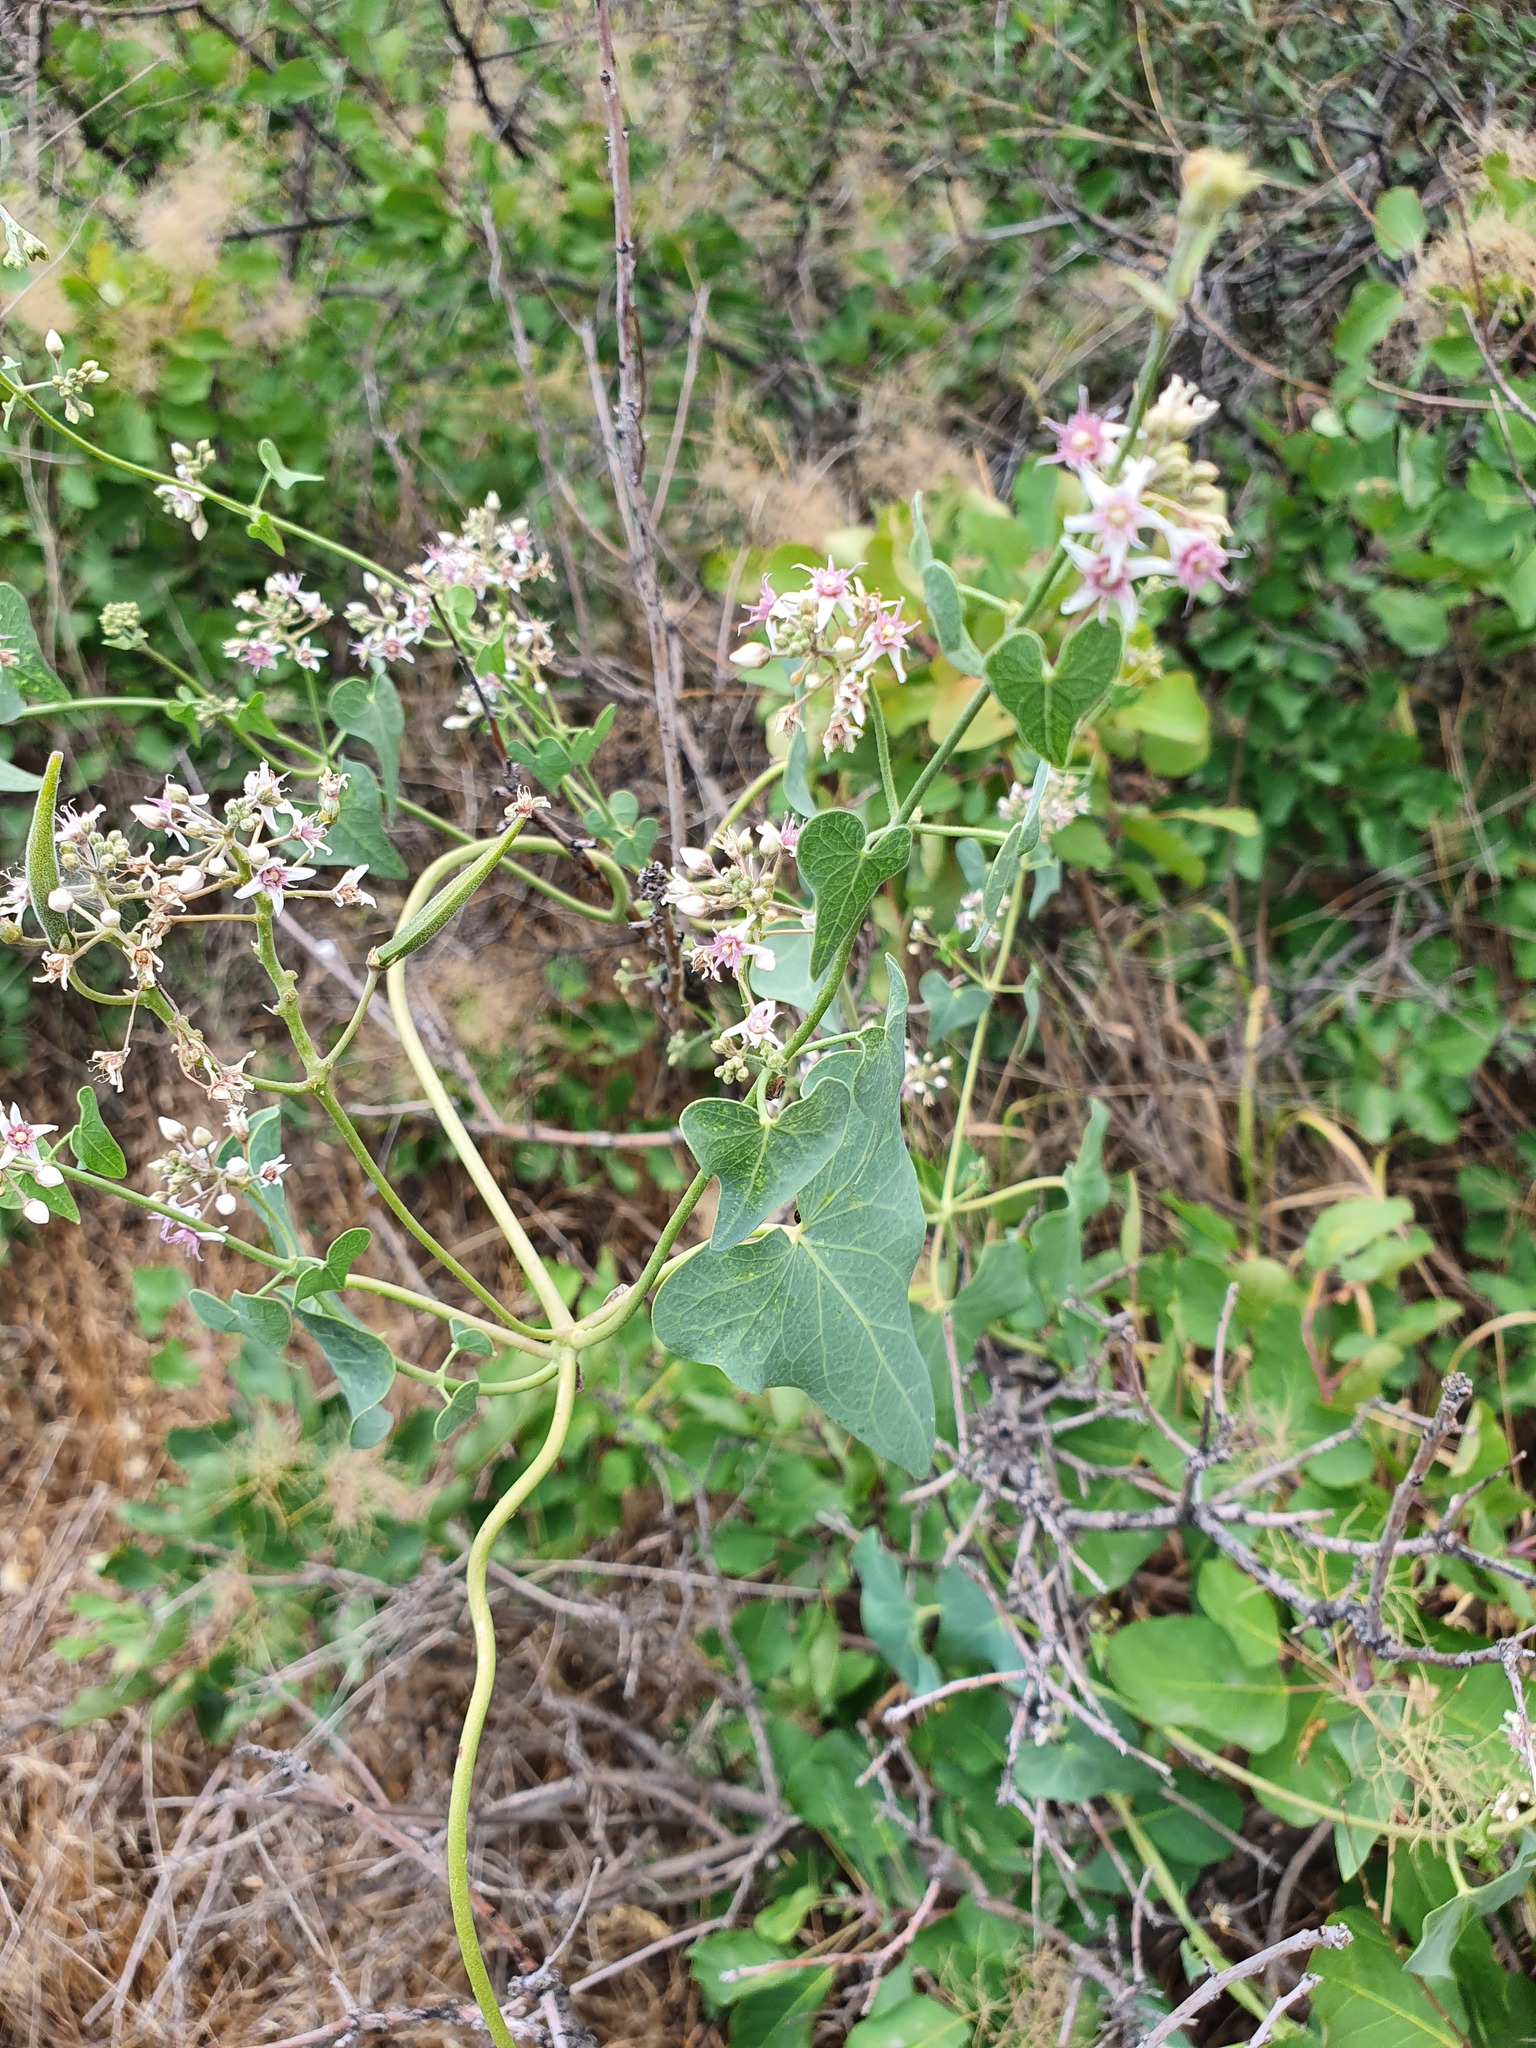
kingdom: Plantae
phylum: Tracheophyta
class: Magnoliopsida
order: Gentianales
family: Apocynaceae
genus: Cynanchum
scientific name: Cynanchum acutum
